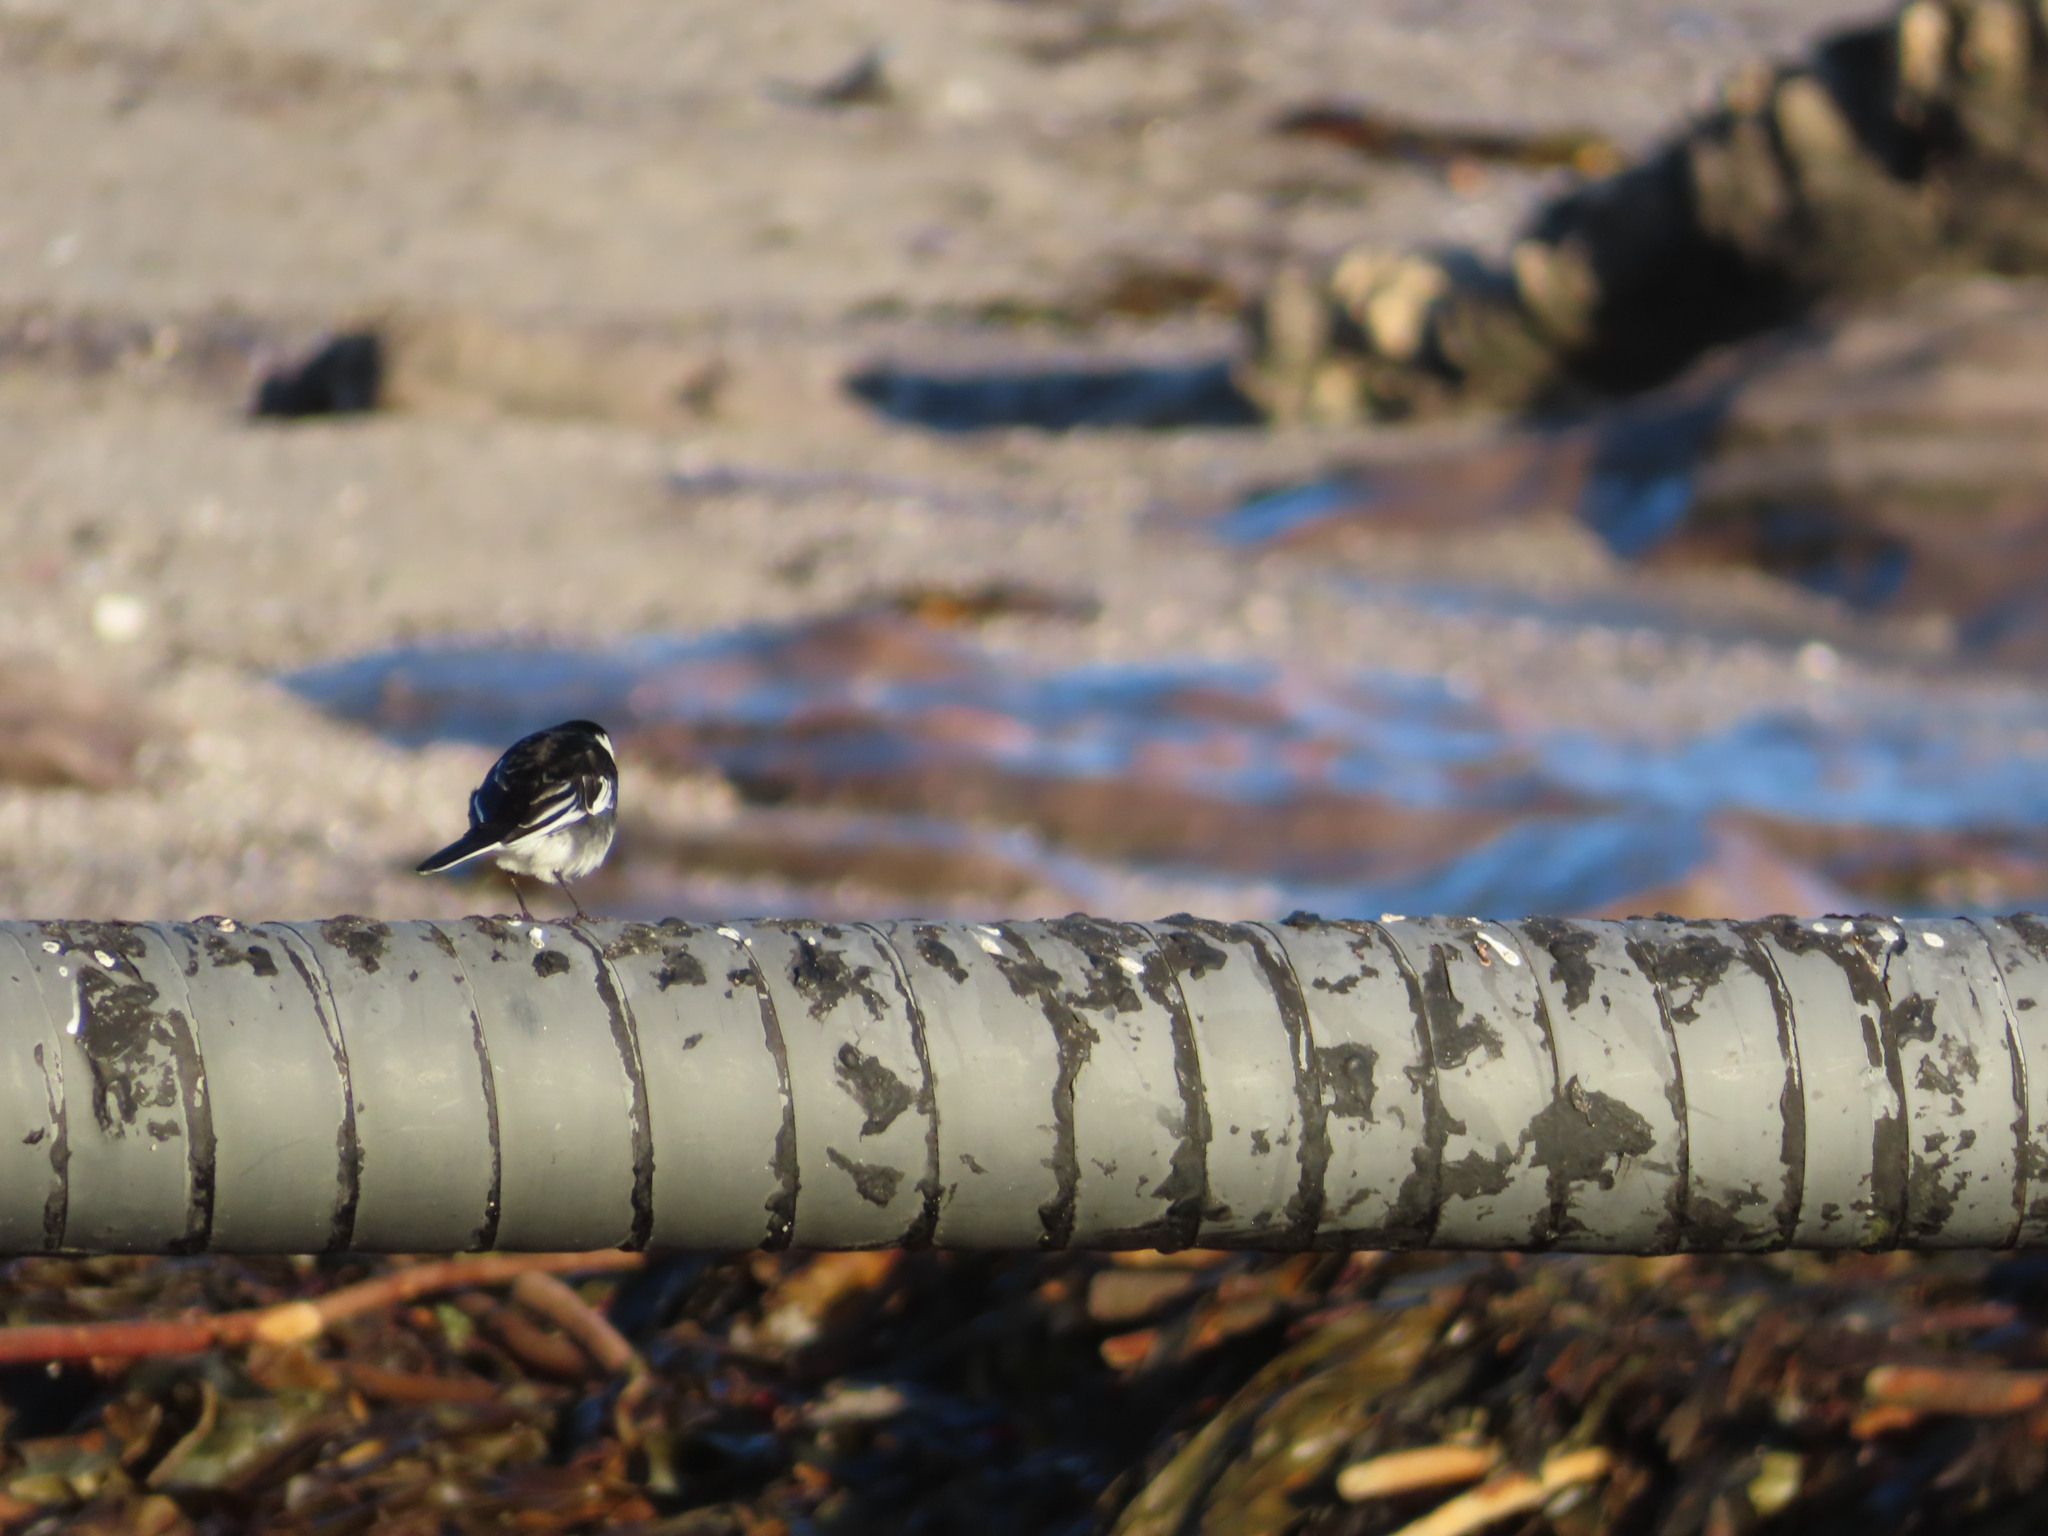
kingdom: Animalia
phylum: Chordata
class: Aves
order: Passeriformes
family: Motacillidae
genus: Motacilla
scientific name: Motacilla alba
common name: White wagtail
